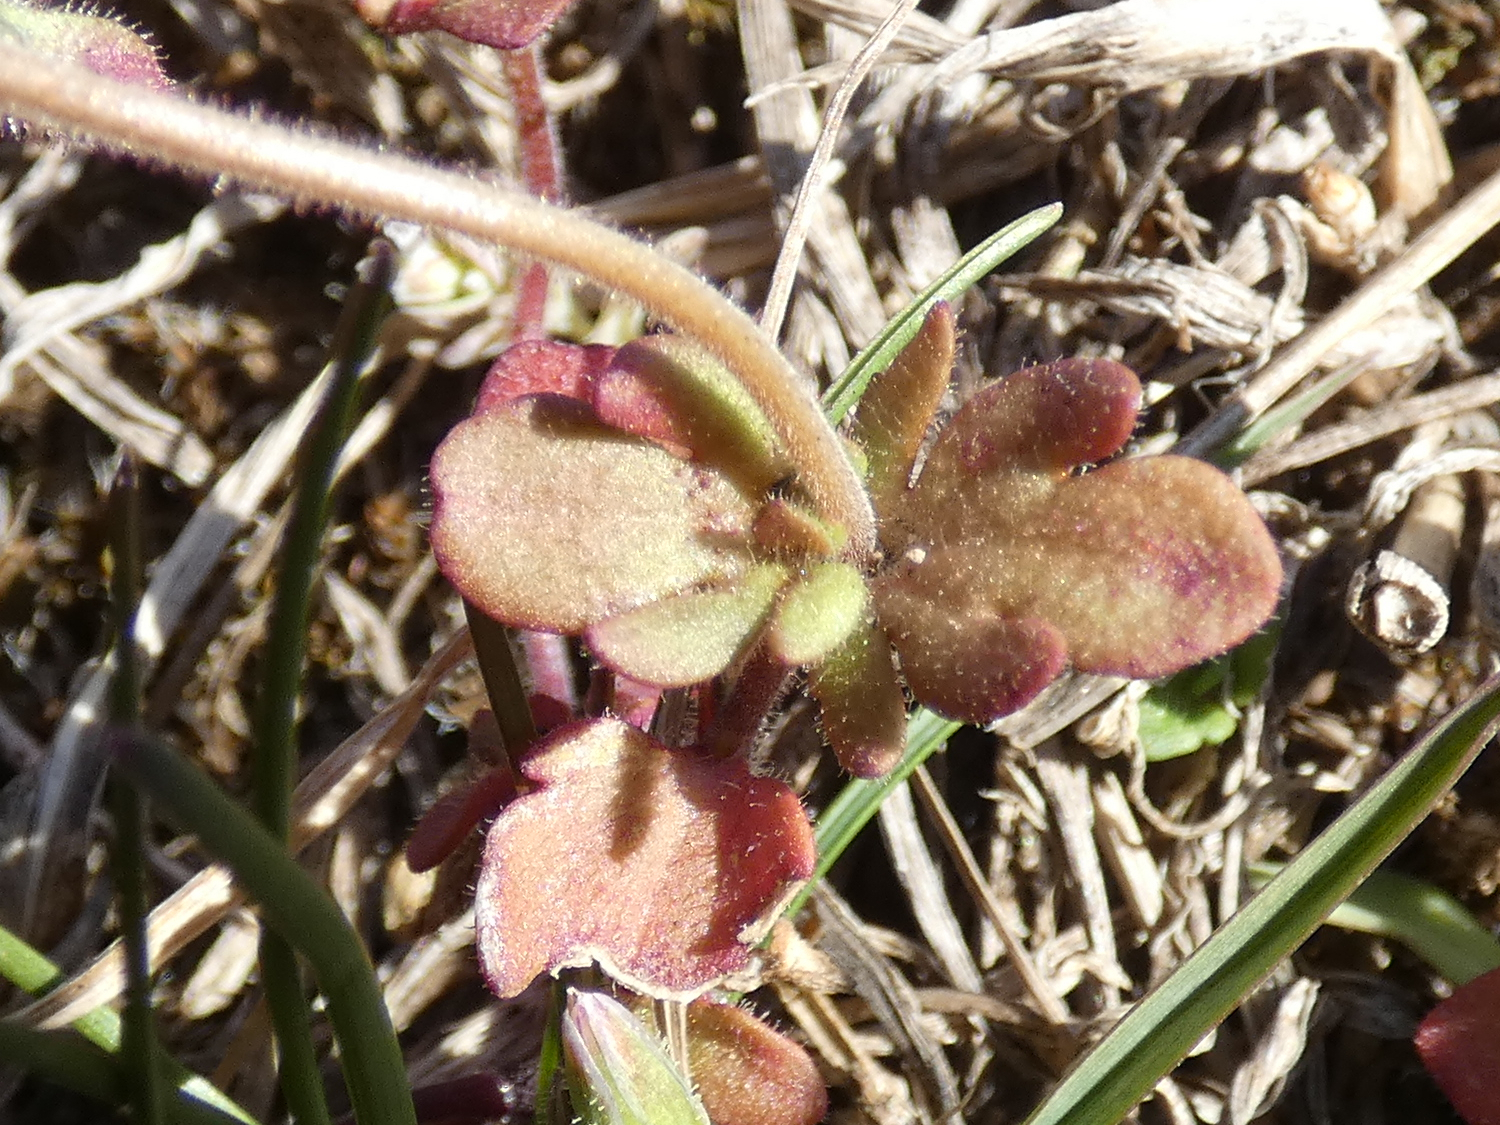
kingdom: Plantae
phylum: Tracheophyta
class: Magnoliopsida
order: Lamiales
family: Plantaginaceae
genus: Veronica
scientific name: Veronica triphyllos
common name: Fingered speedwell
